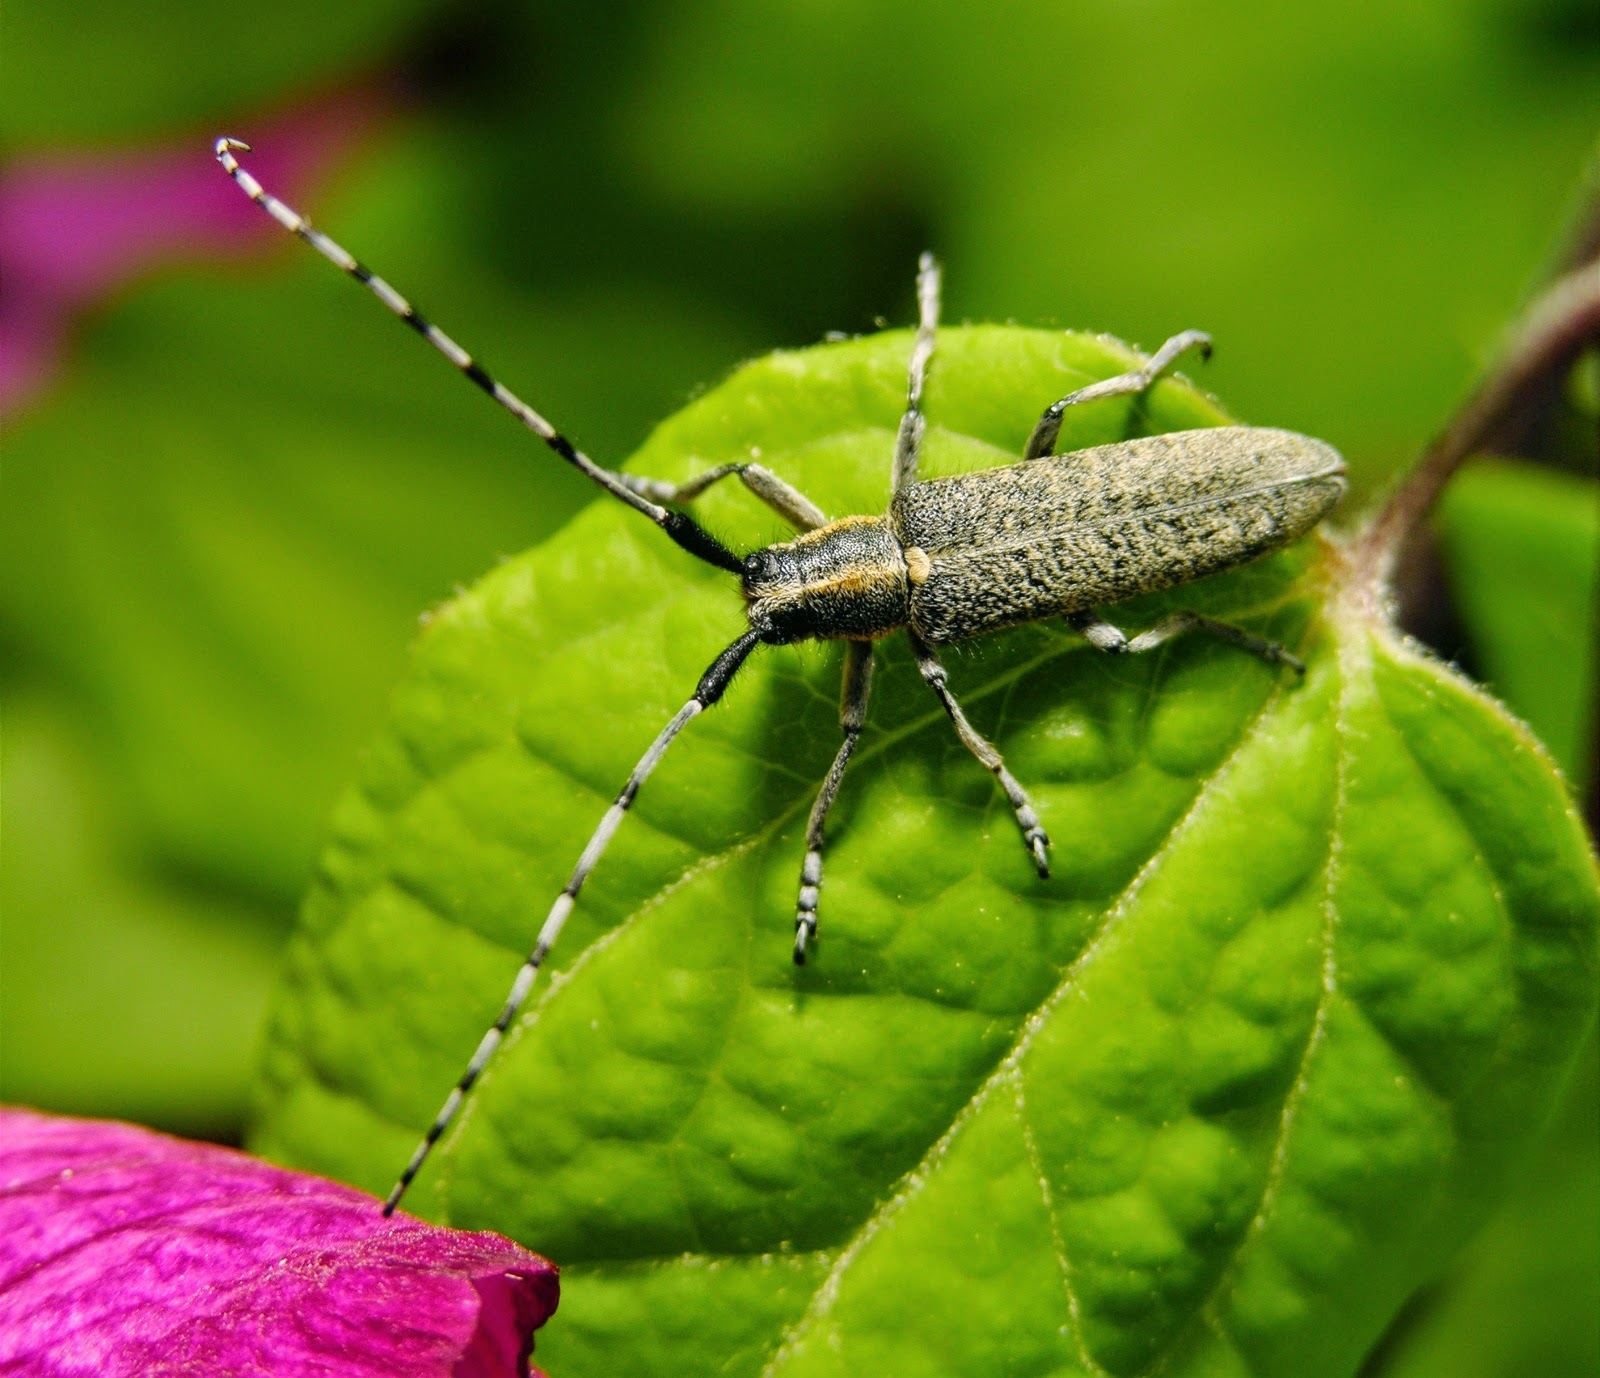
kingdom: Animalia
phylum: Arthropoda
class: Insecta
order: Coleoptera
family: Cerambycidae
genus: Agapanthia
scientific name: Agapanthia villosoviridescens
